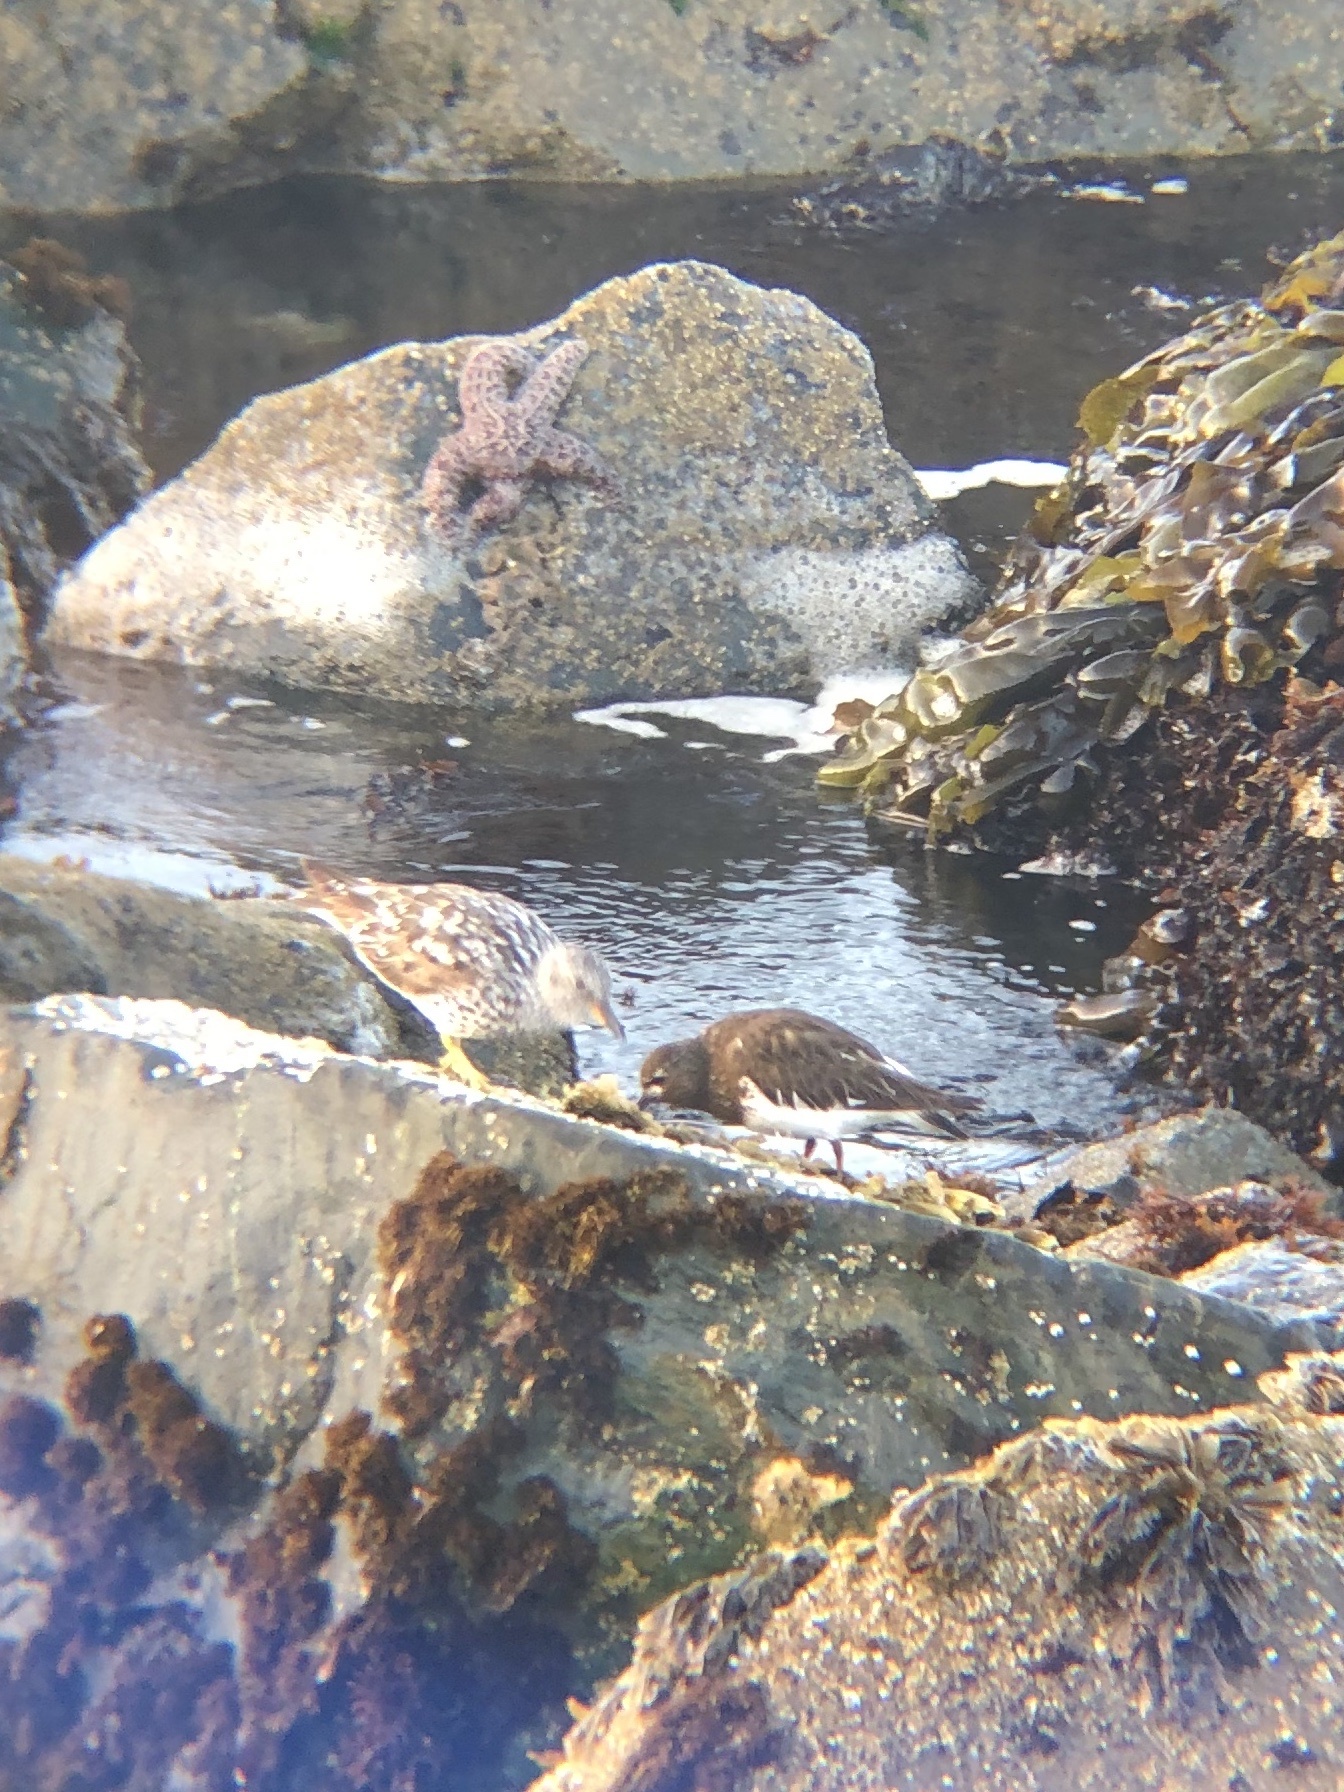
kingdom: Animalia
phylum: Chordata
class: Aves
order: Charadriiformes
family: Scolopacidae
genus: Arenaria
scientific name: Arenaria melanocephala
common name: Black turnstone
